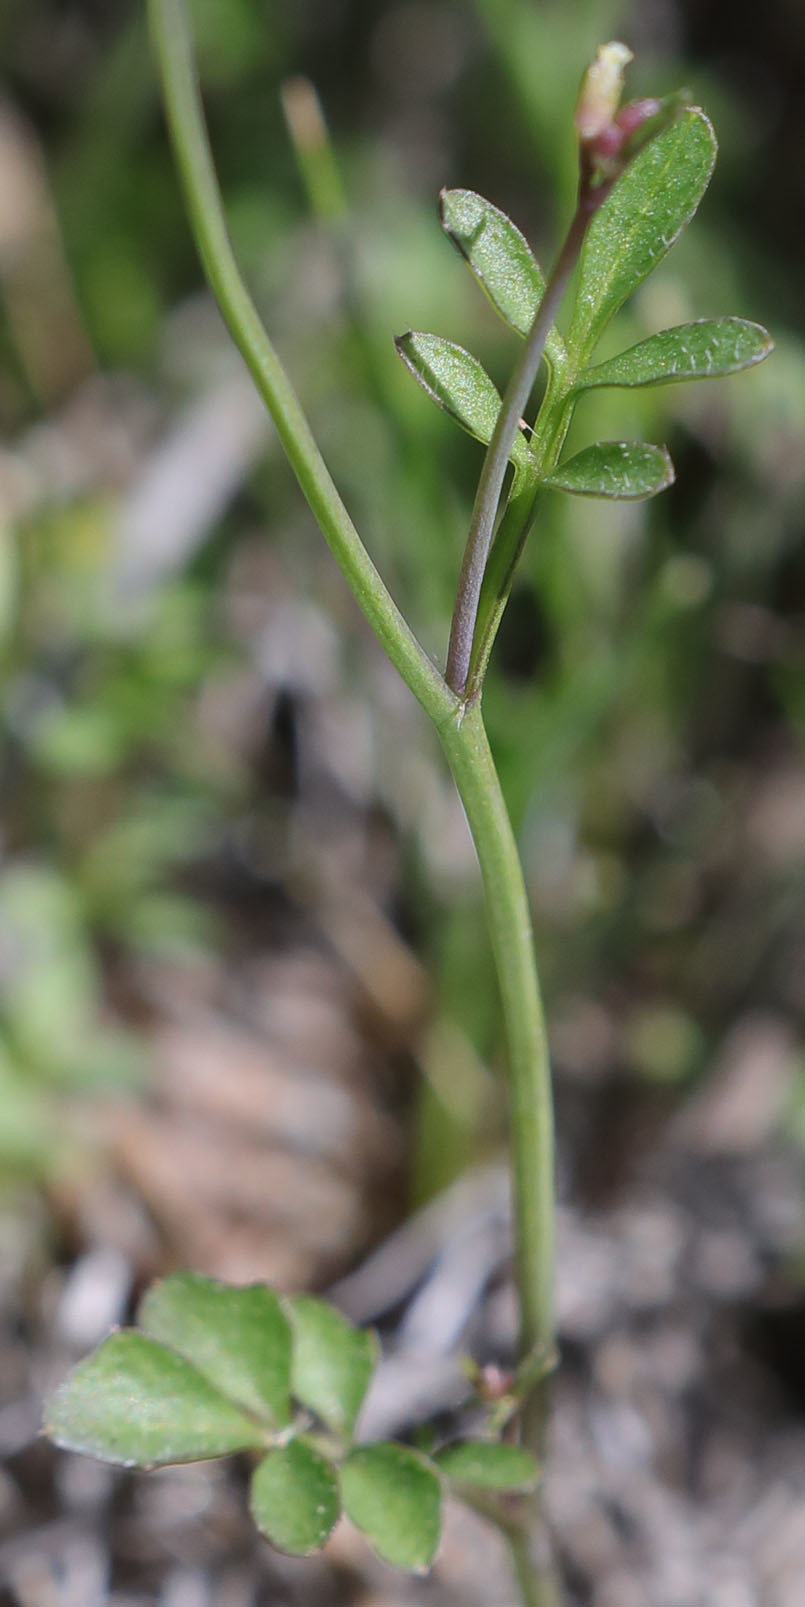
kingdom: Plantae
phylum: Tracheophyta
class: Magnoliopsida
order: Brassicales
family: Brassicaceae
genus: Cardamine
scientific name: Cardamine hirsuta
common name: Hairy bittercress
